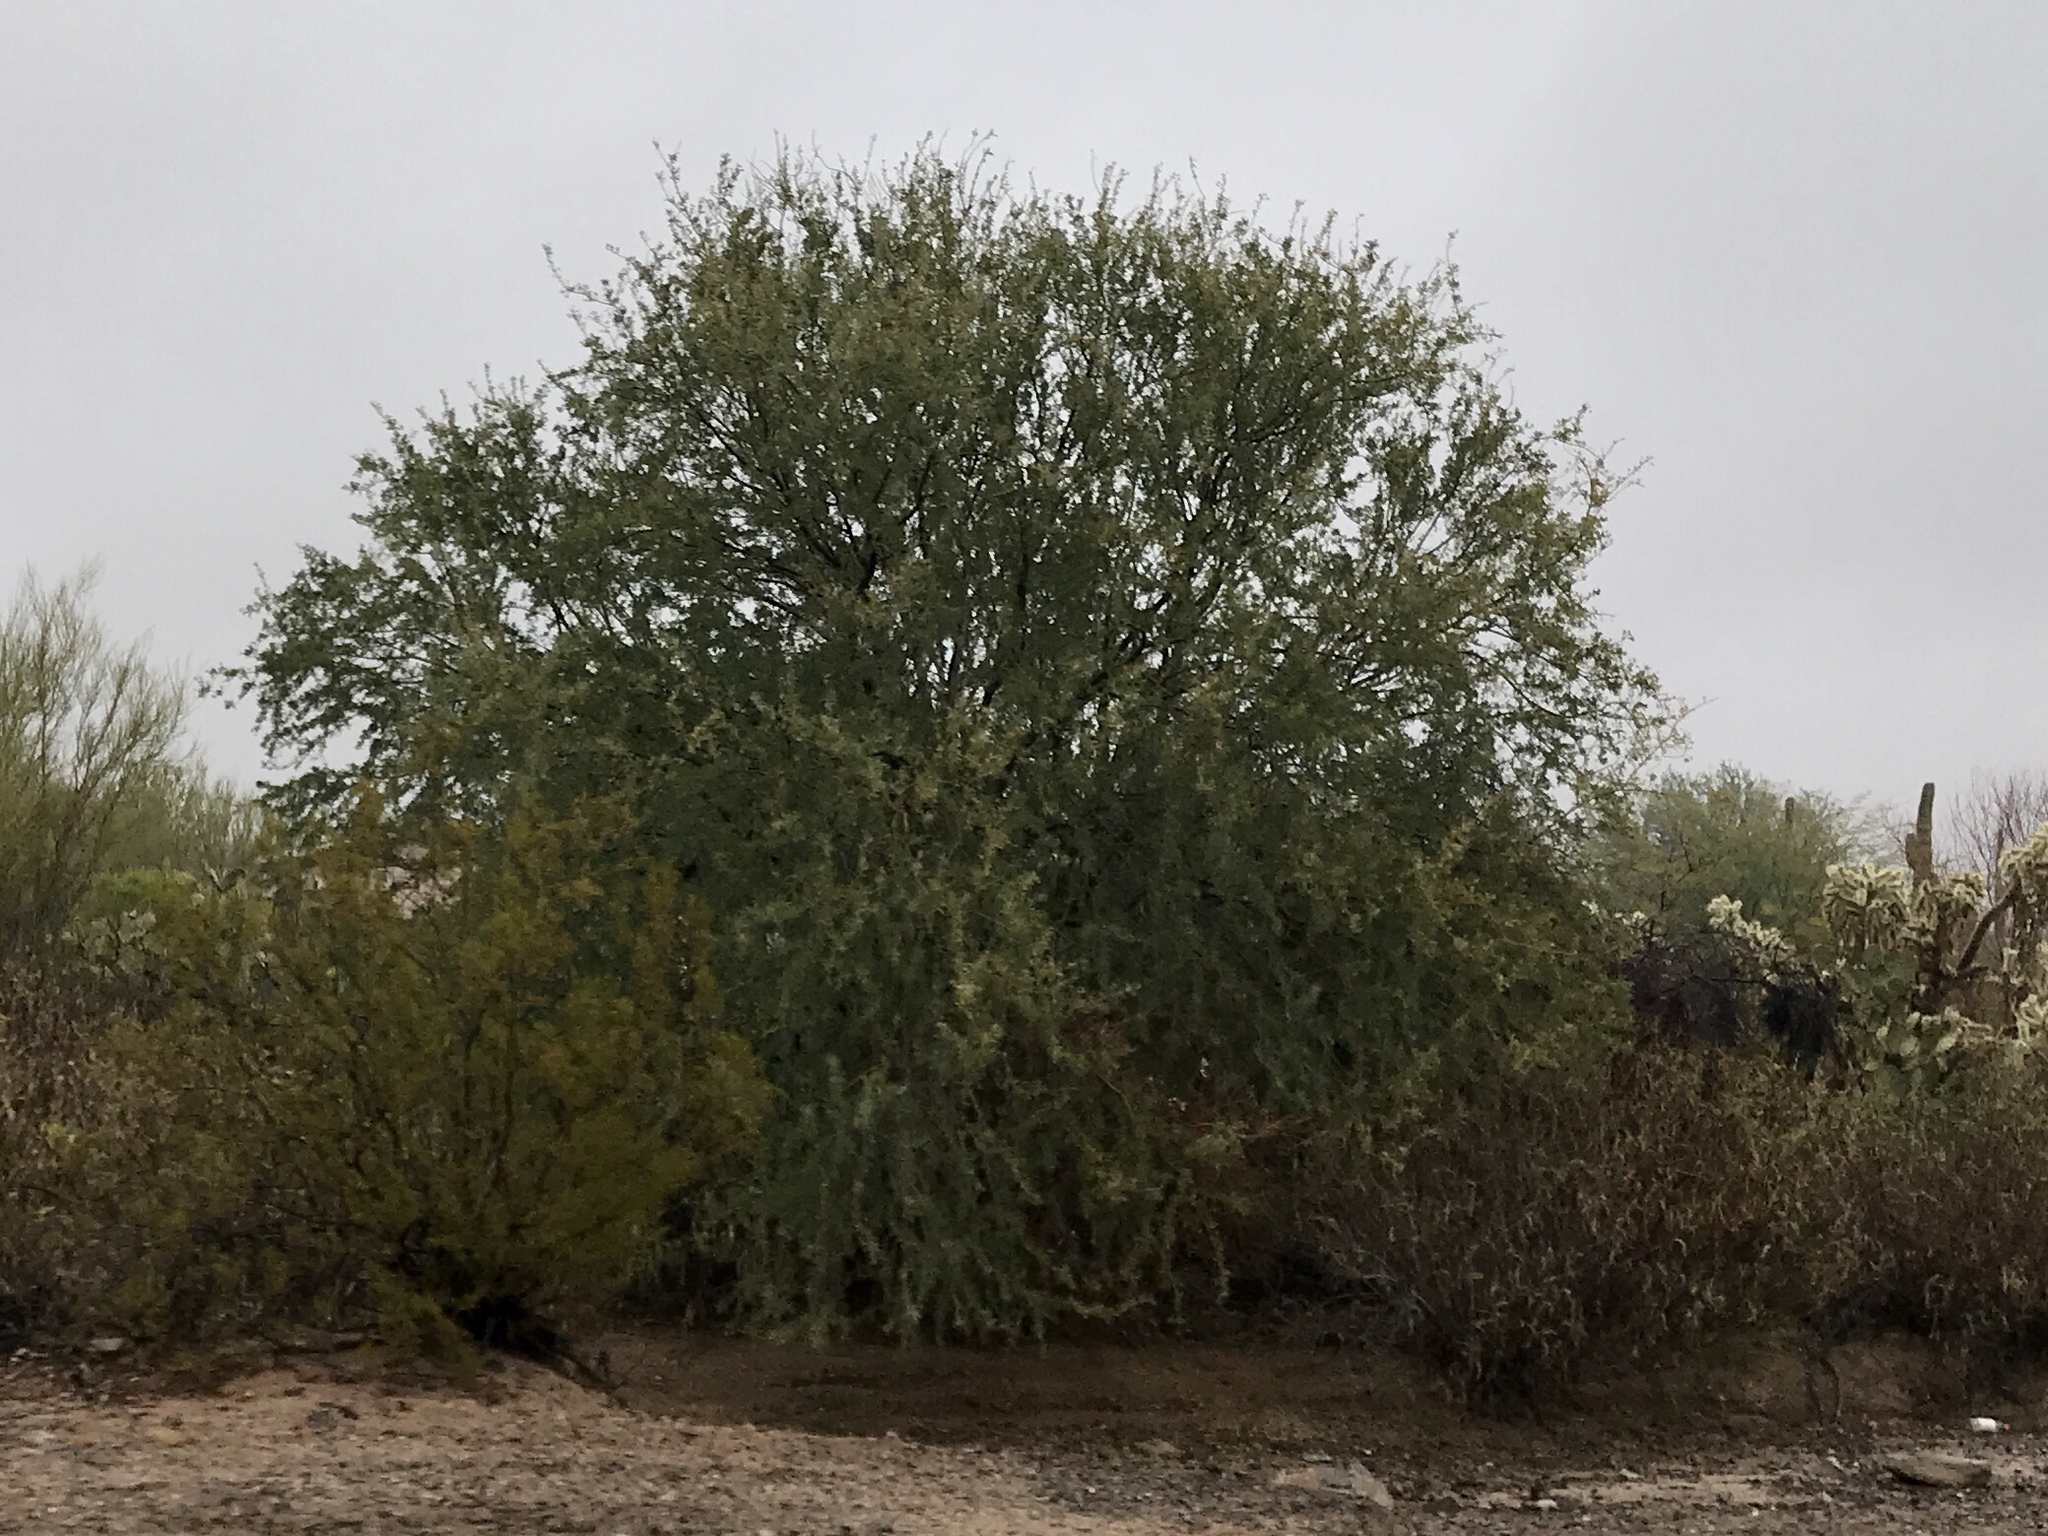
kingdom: Plantae
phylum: Tracheophyta
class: Magnoliopsida
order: Fabales
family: Fabaceae
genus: Olneya
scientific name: Olneya tesota
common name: Desert ironwood
